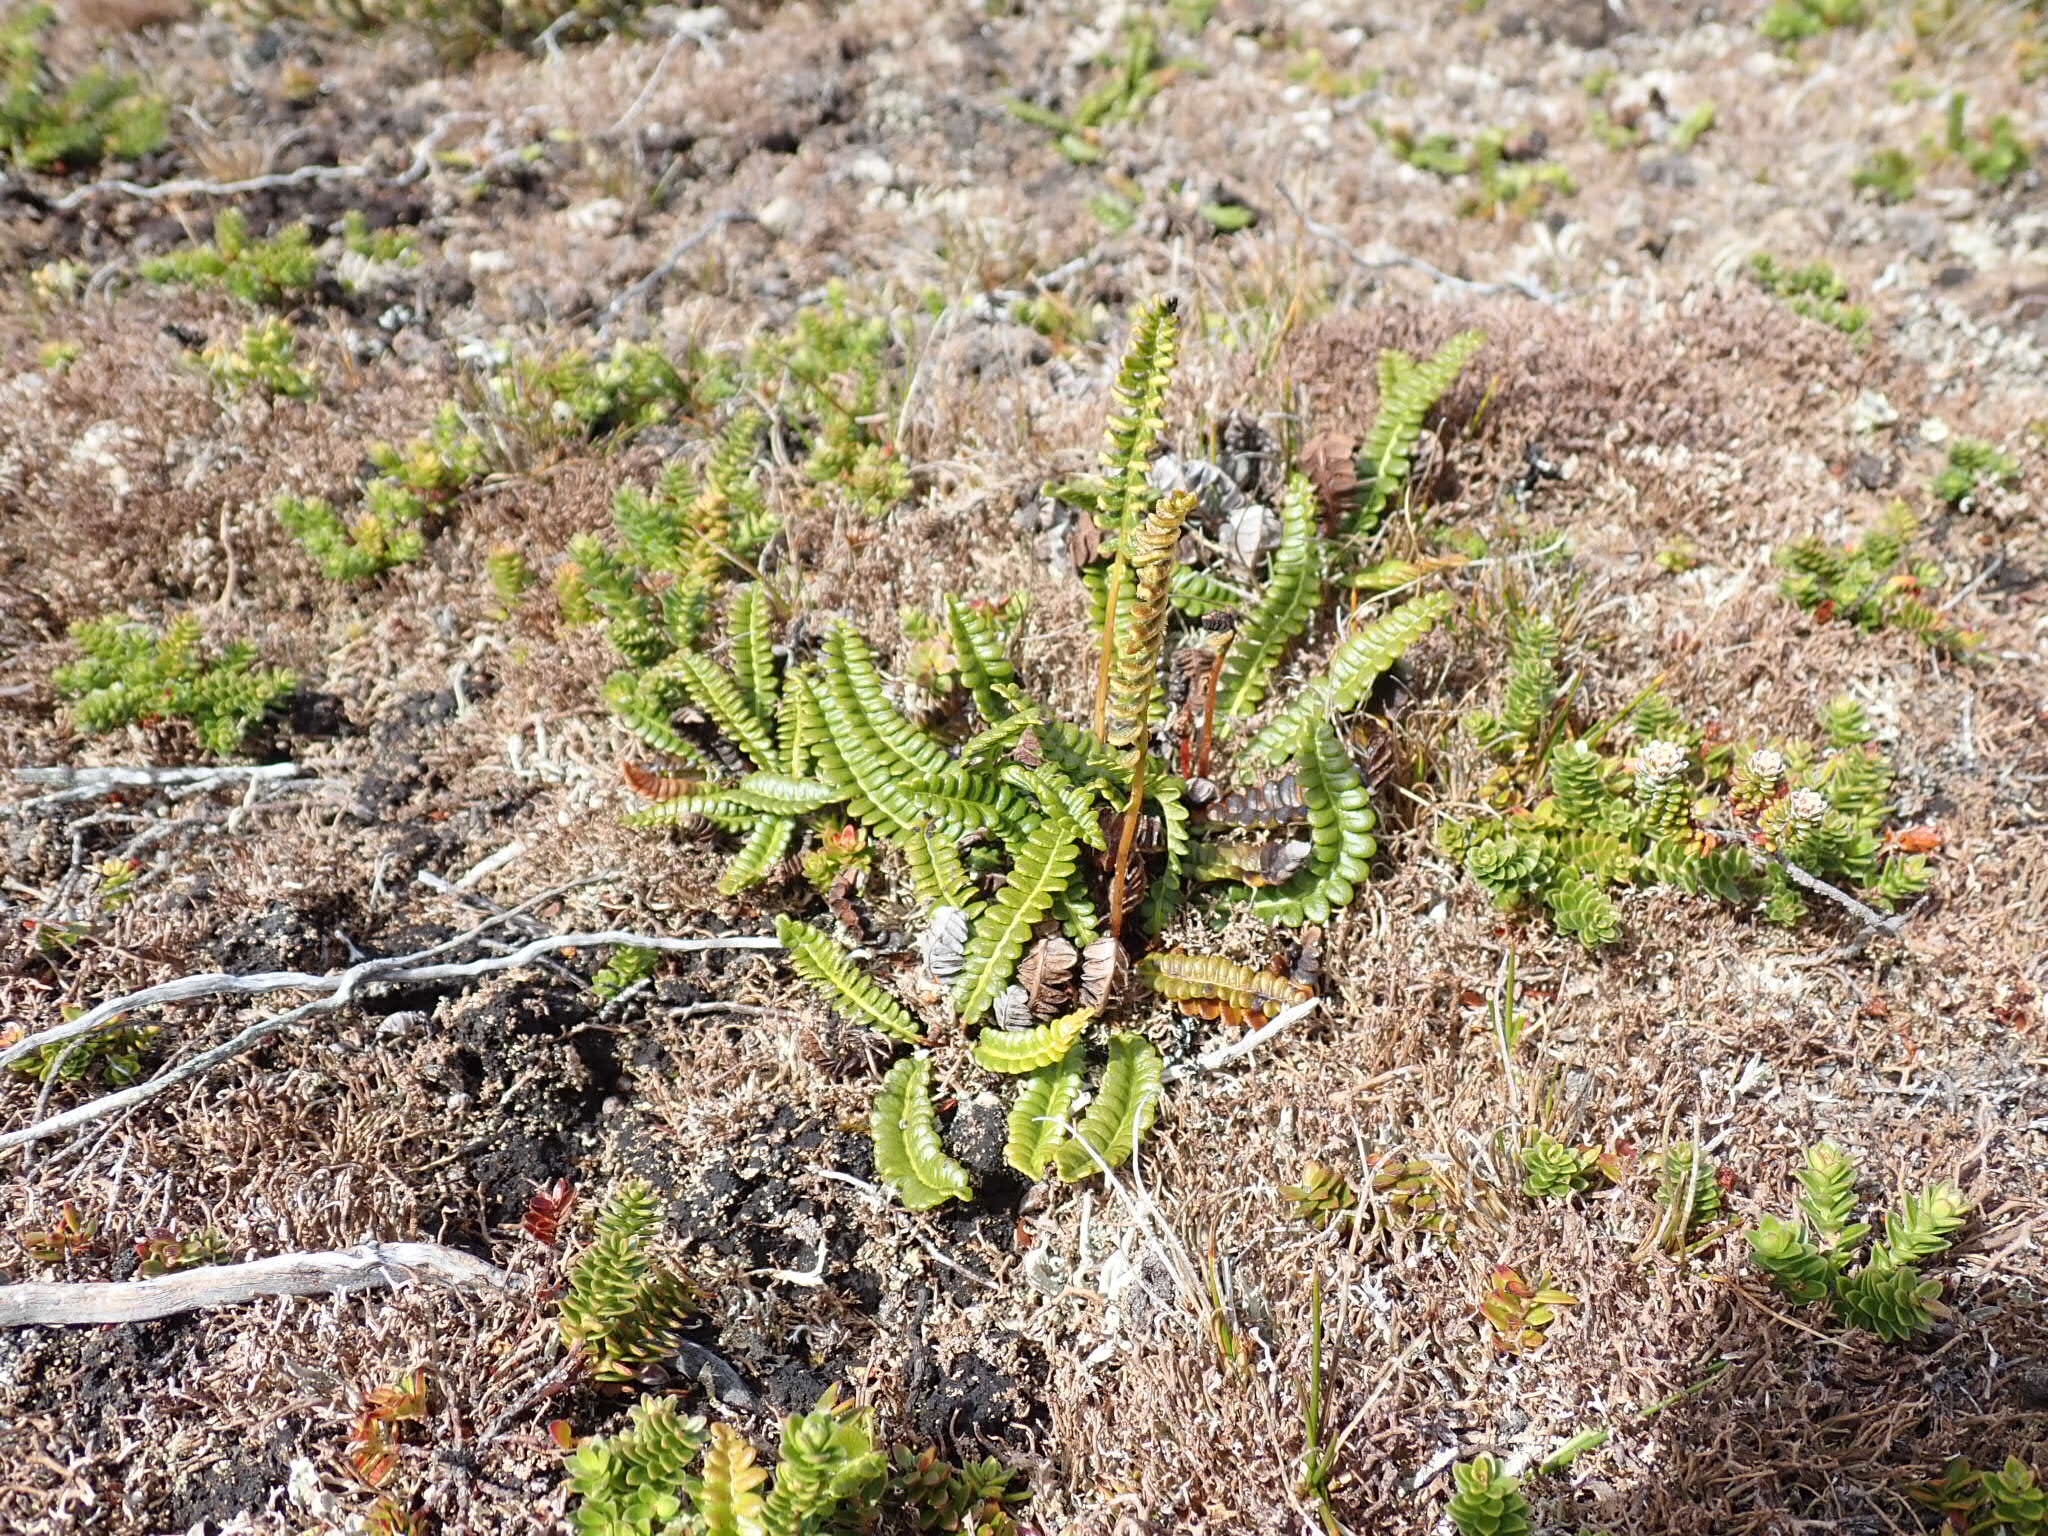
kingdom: Plantae
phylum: Tracheophyta
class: Polypodiopsida
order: Polypodiales
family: Blechnaceae
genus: Austroblechnum
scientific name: Austroblechnum penna-marina
